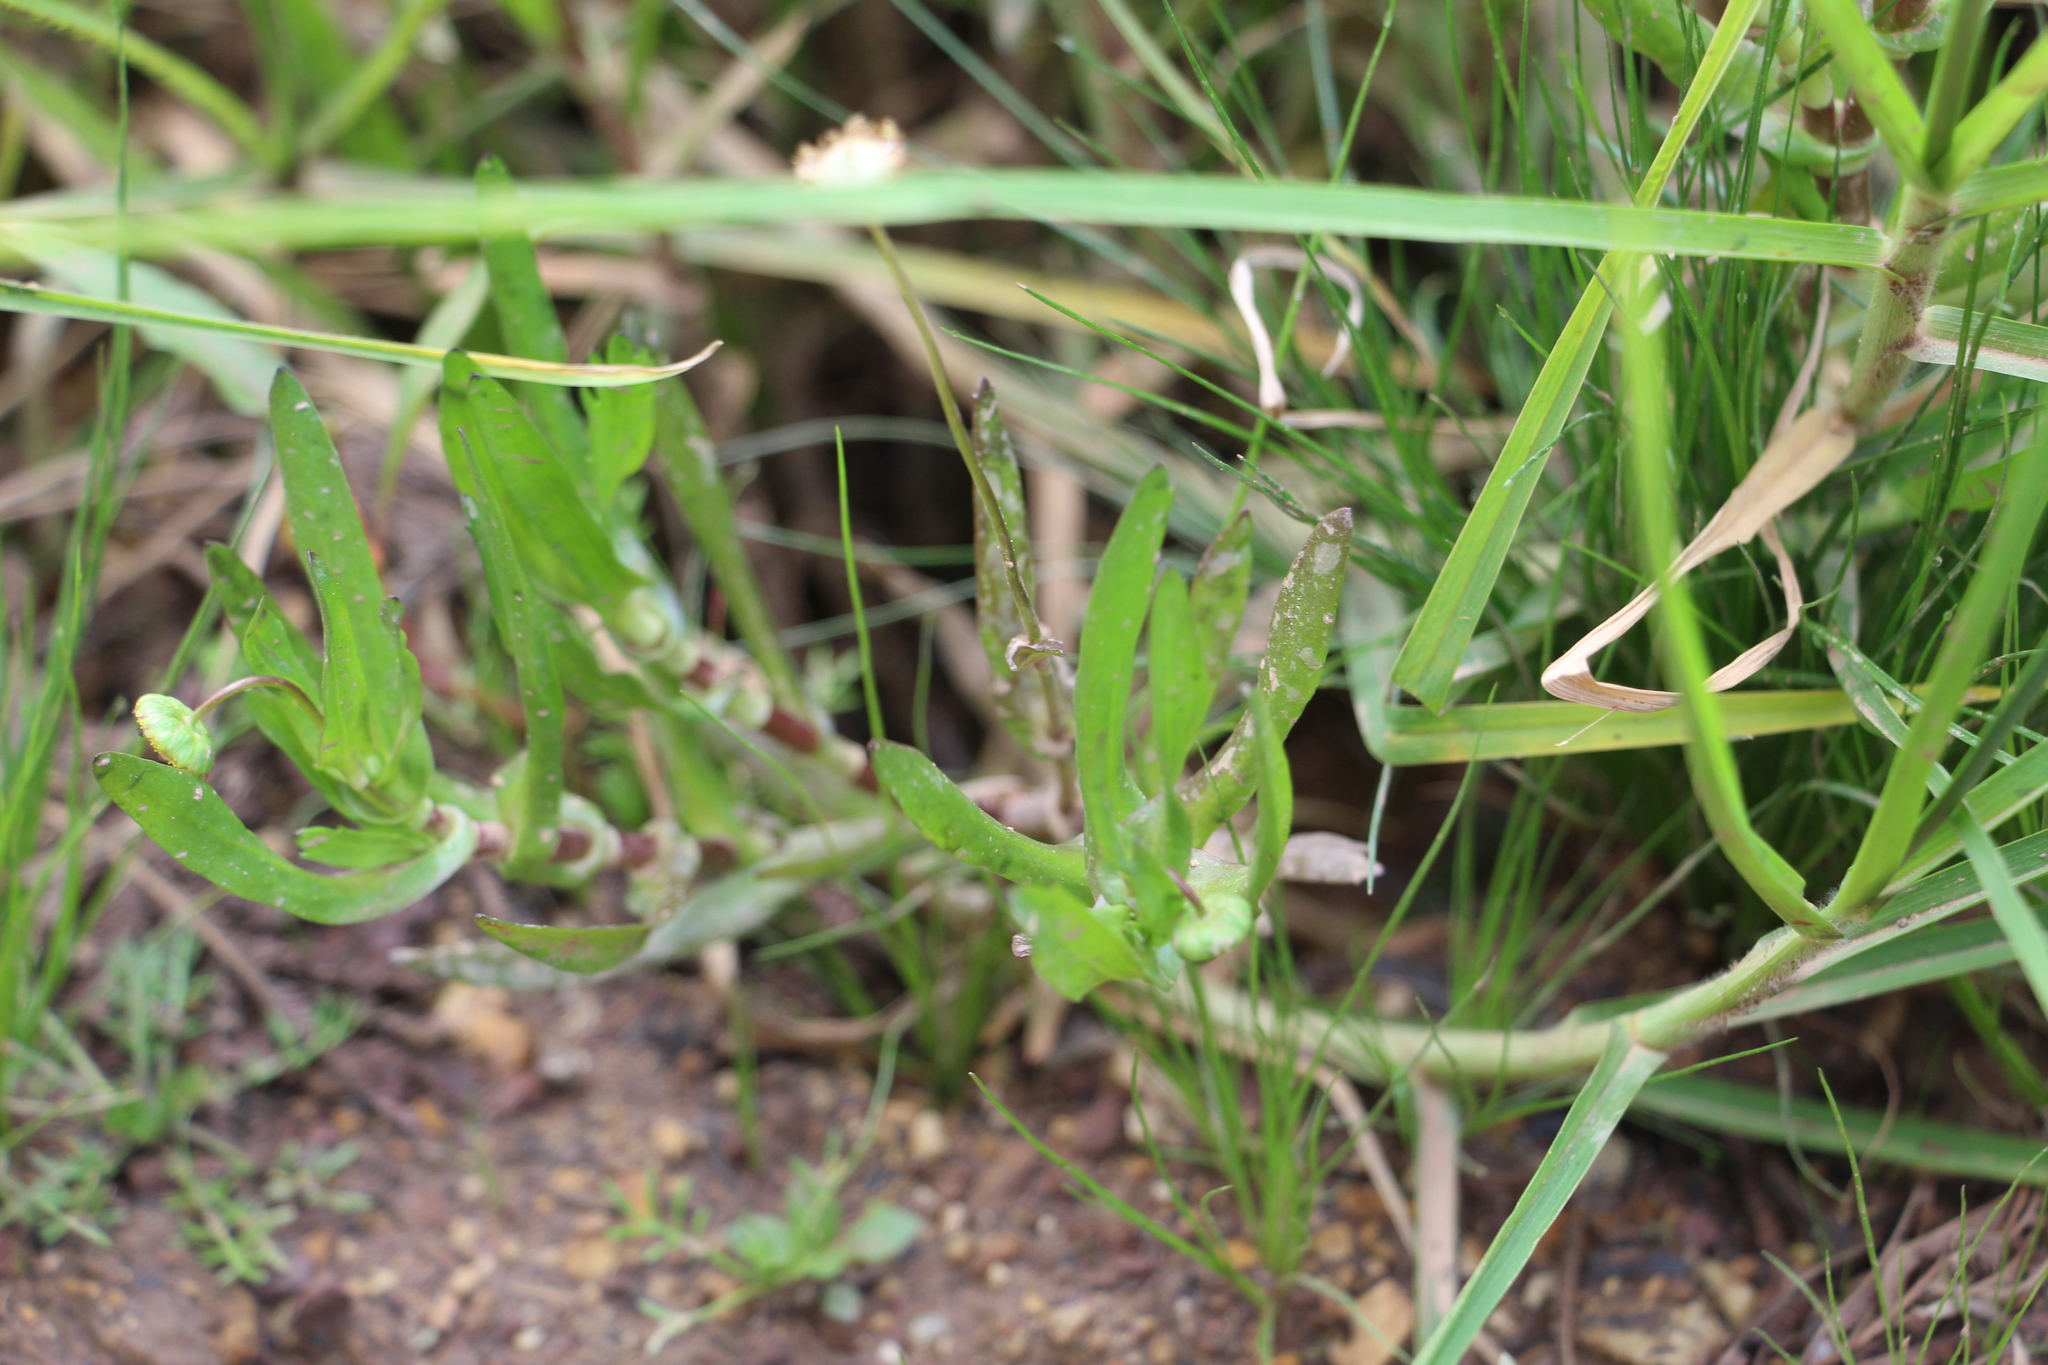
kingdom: Plantae
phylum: Tracheophyta
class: Magnoliopsida
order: Asterales
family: Asteraceae
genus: Cotula
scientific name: Cotula coronopifolia
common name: Buttonweed
